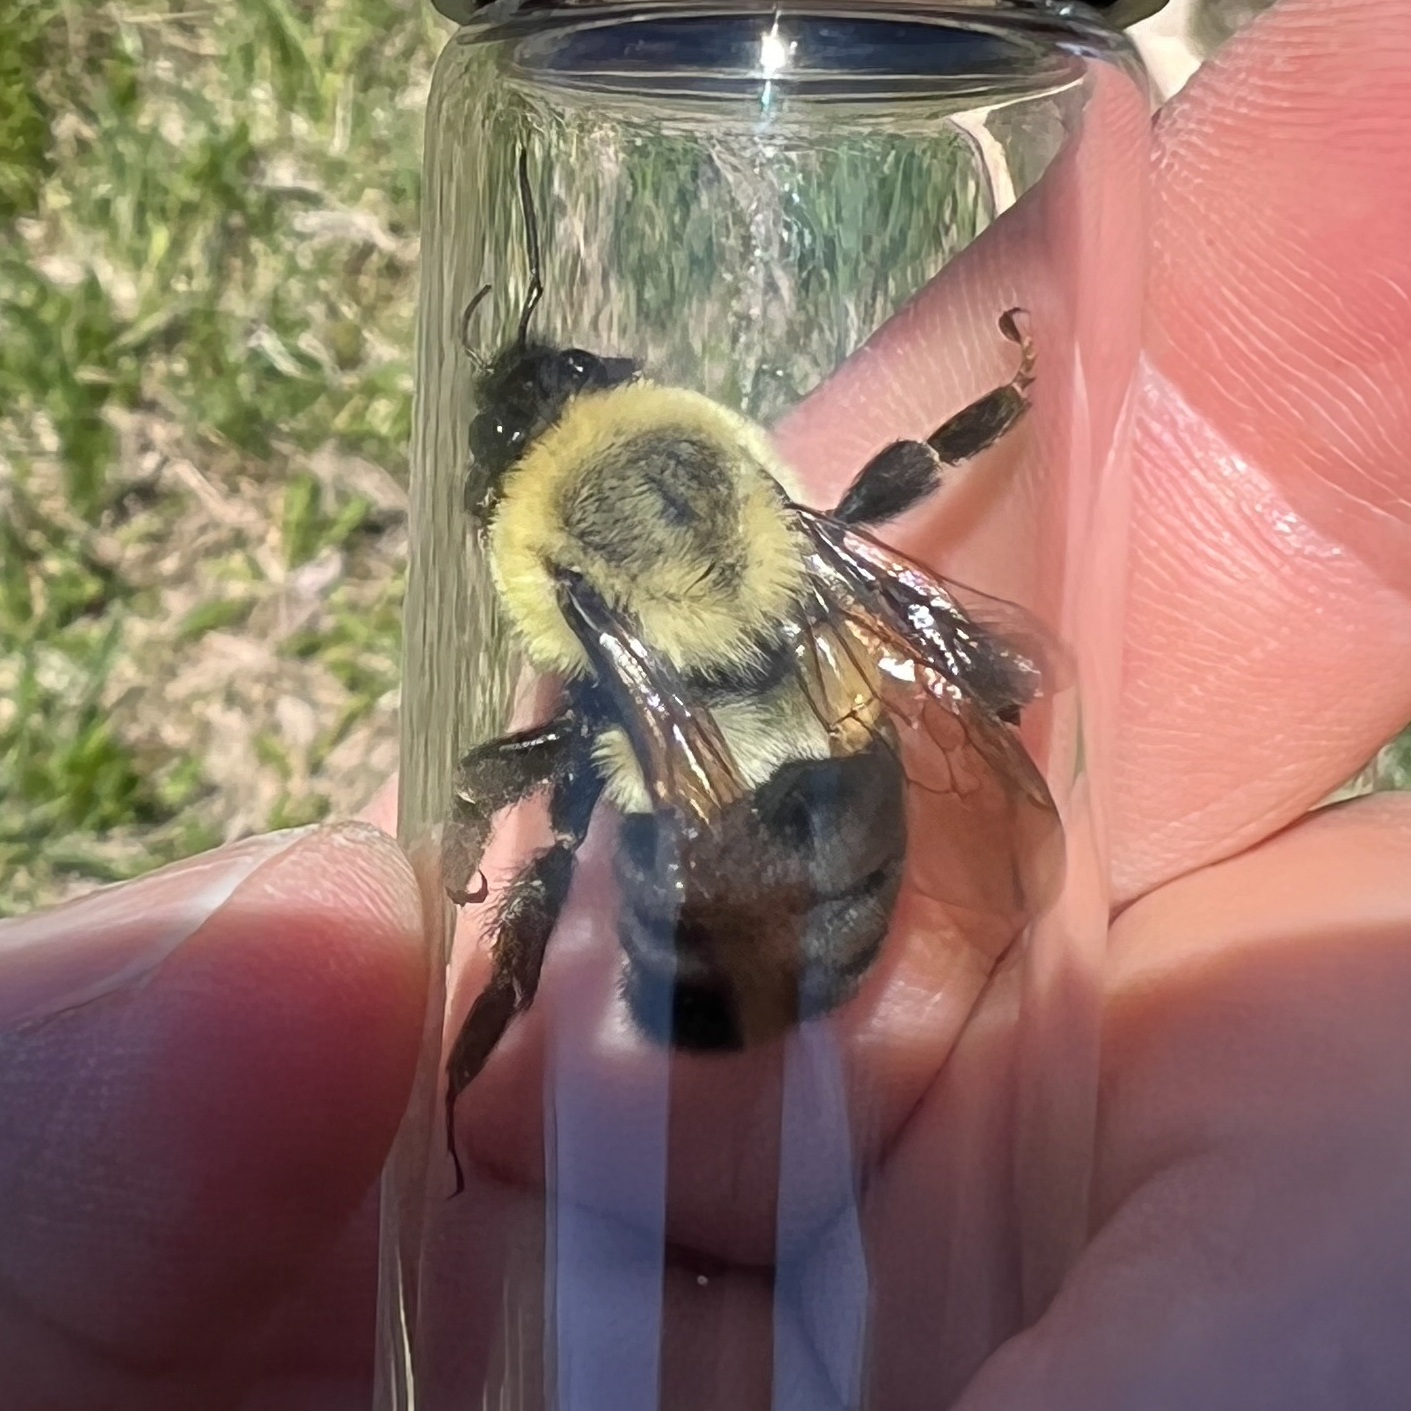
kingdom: Animalia
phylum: Arthropoda
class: Insecta
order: Hymenoptera
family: Apidae
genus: Bombus
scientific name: Bombus impatiens
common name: Common eastern bumble bee
